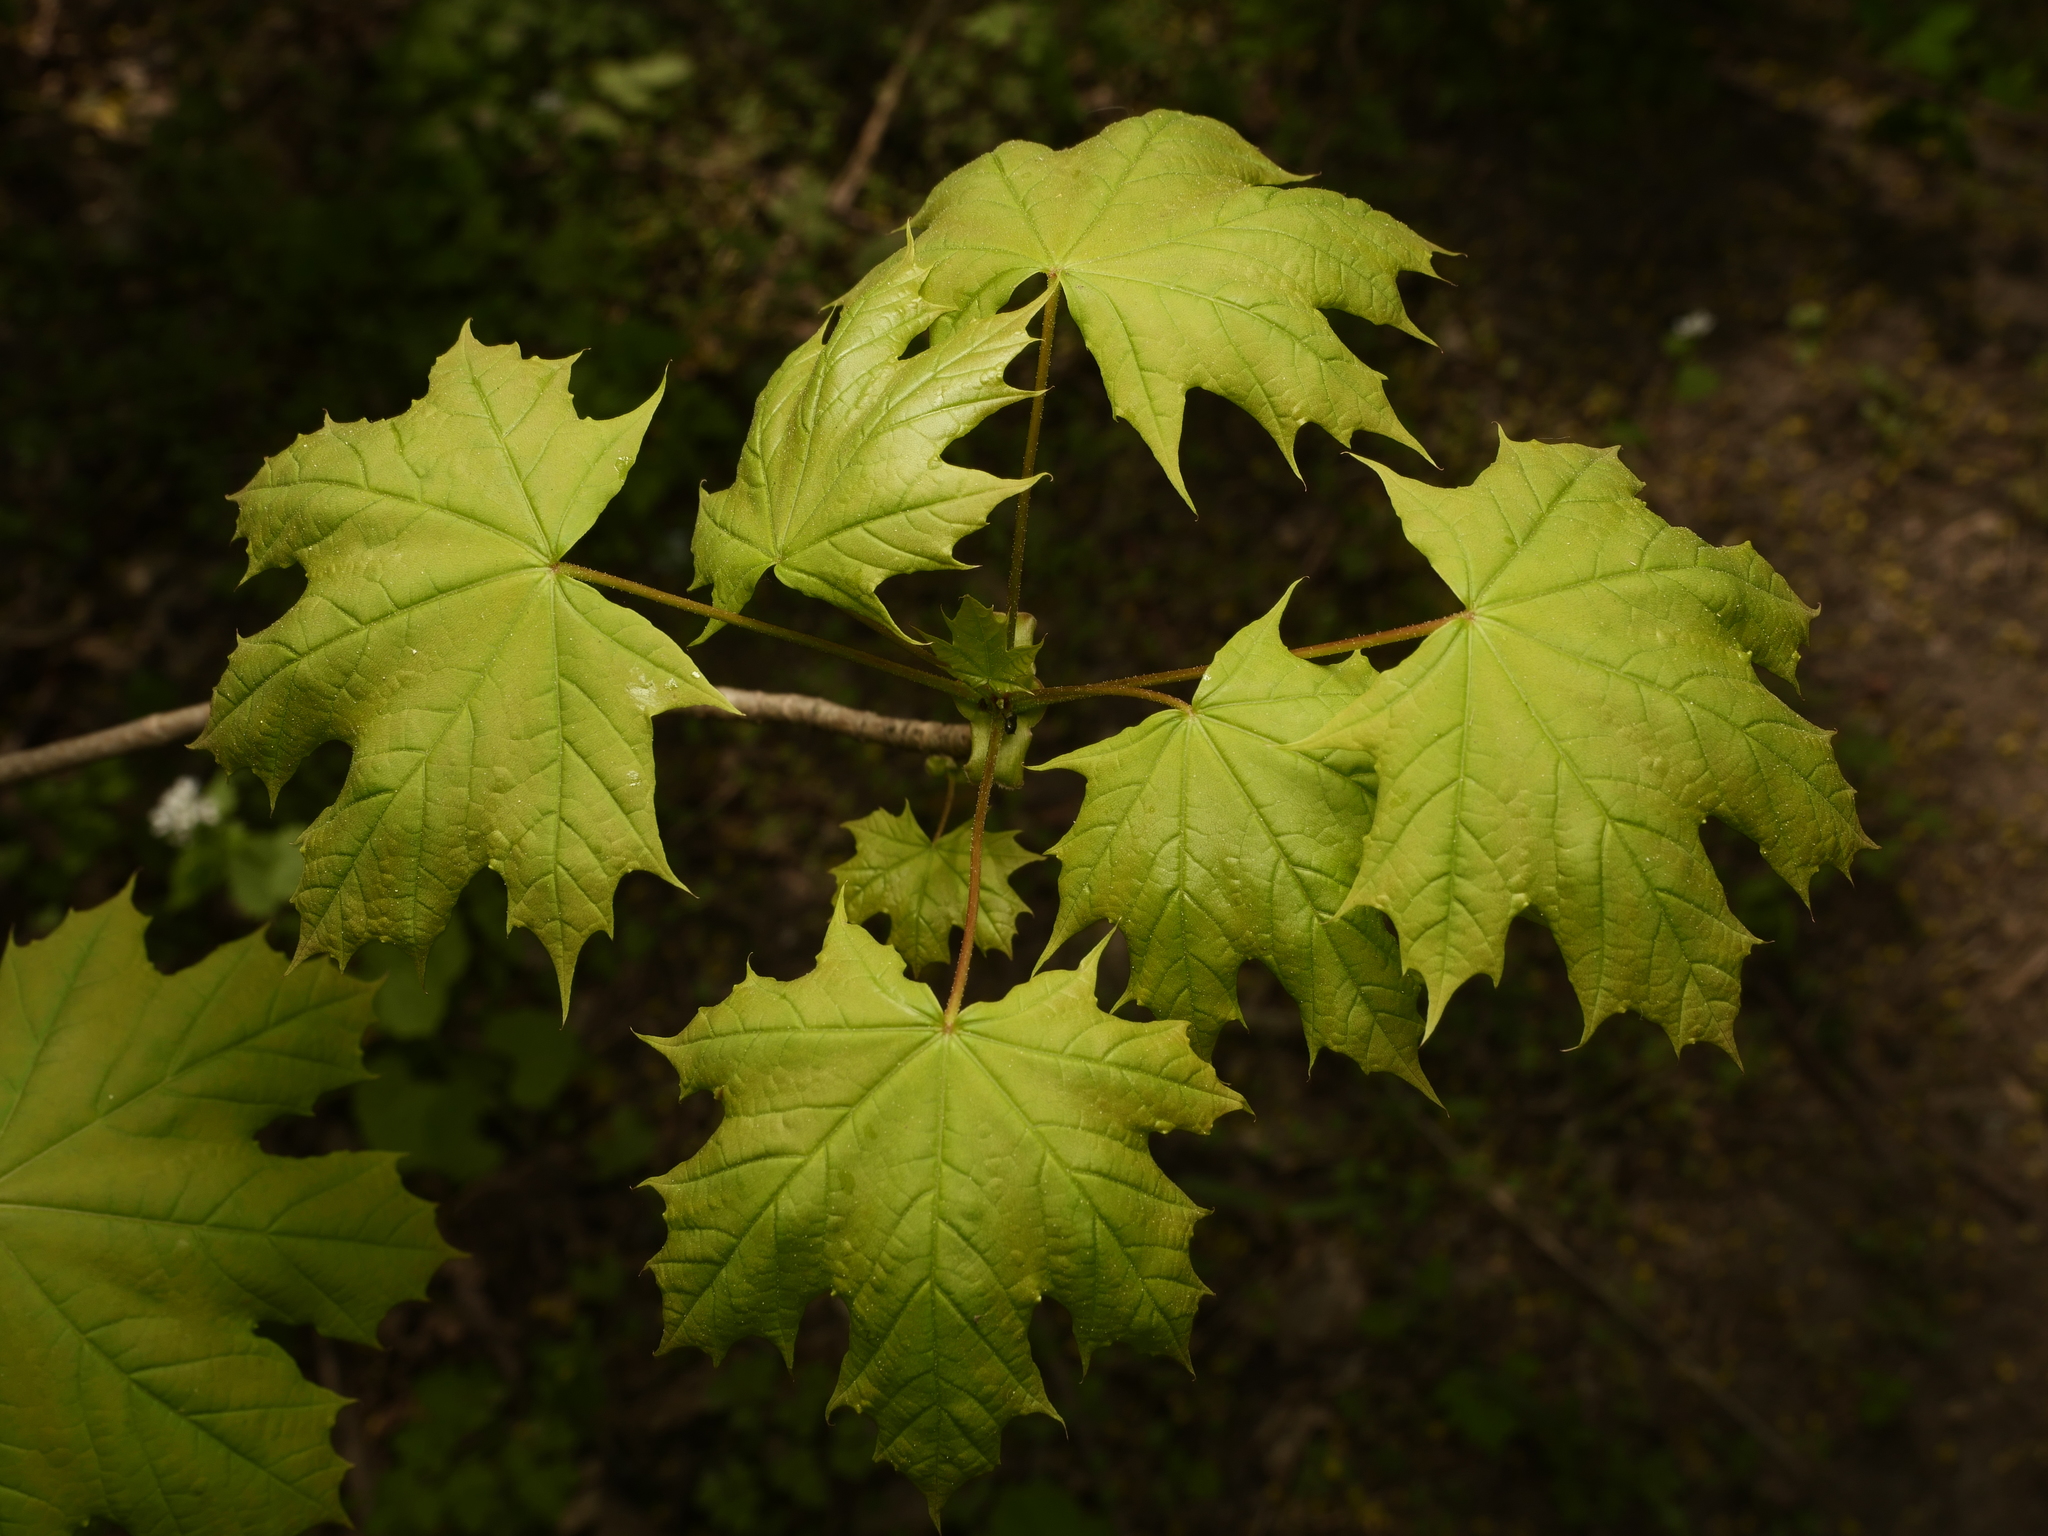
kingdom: Plantae
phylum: Tracheophyta
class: Magnoliopsida
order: Sapindales
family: Sapindaceae
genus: Acer
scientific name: Acer platanoides
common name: Norway maple
